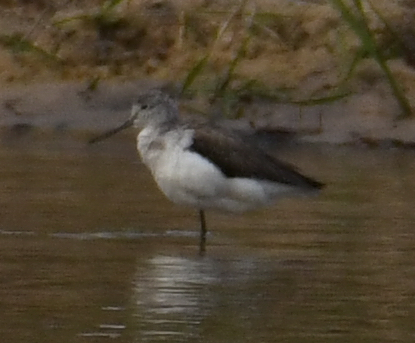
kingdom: Animalia
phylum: Chordata
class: Aves
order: Charadriiformes
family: Scolopacidae
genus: Tringa
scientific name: Tringa nebularia
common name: Common greenshank
